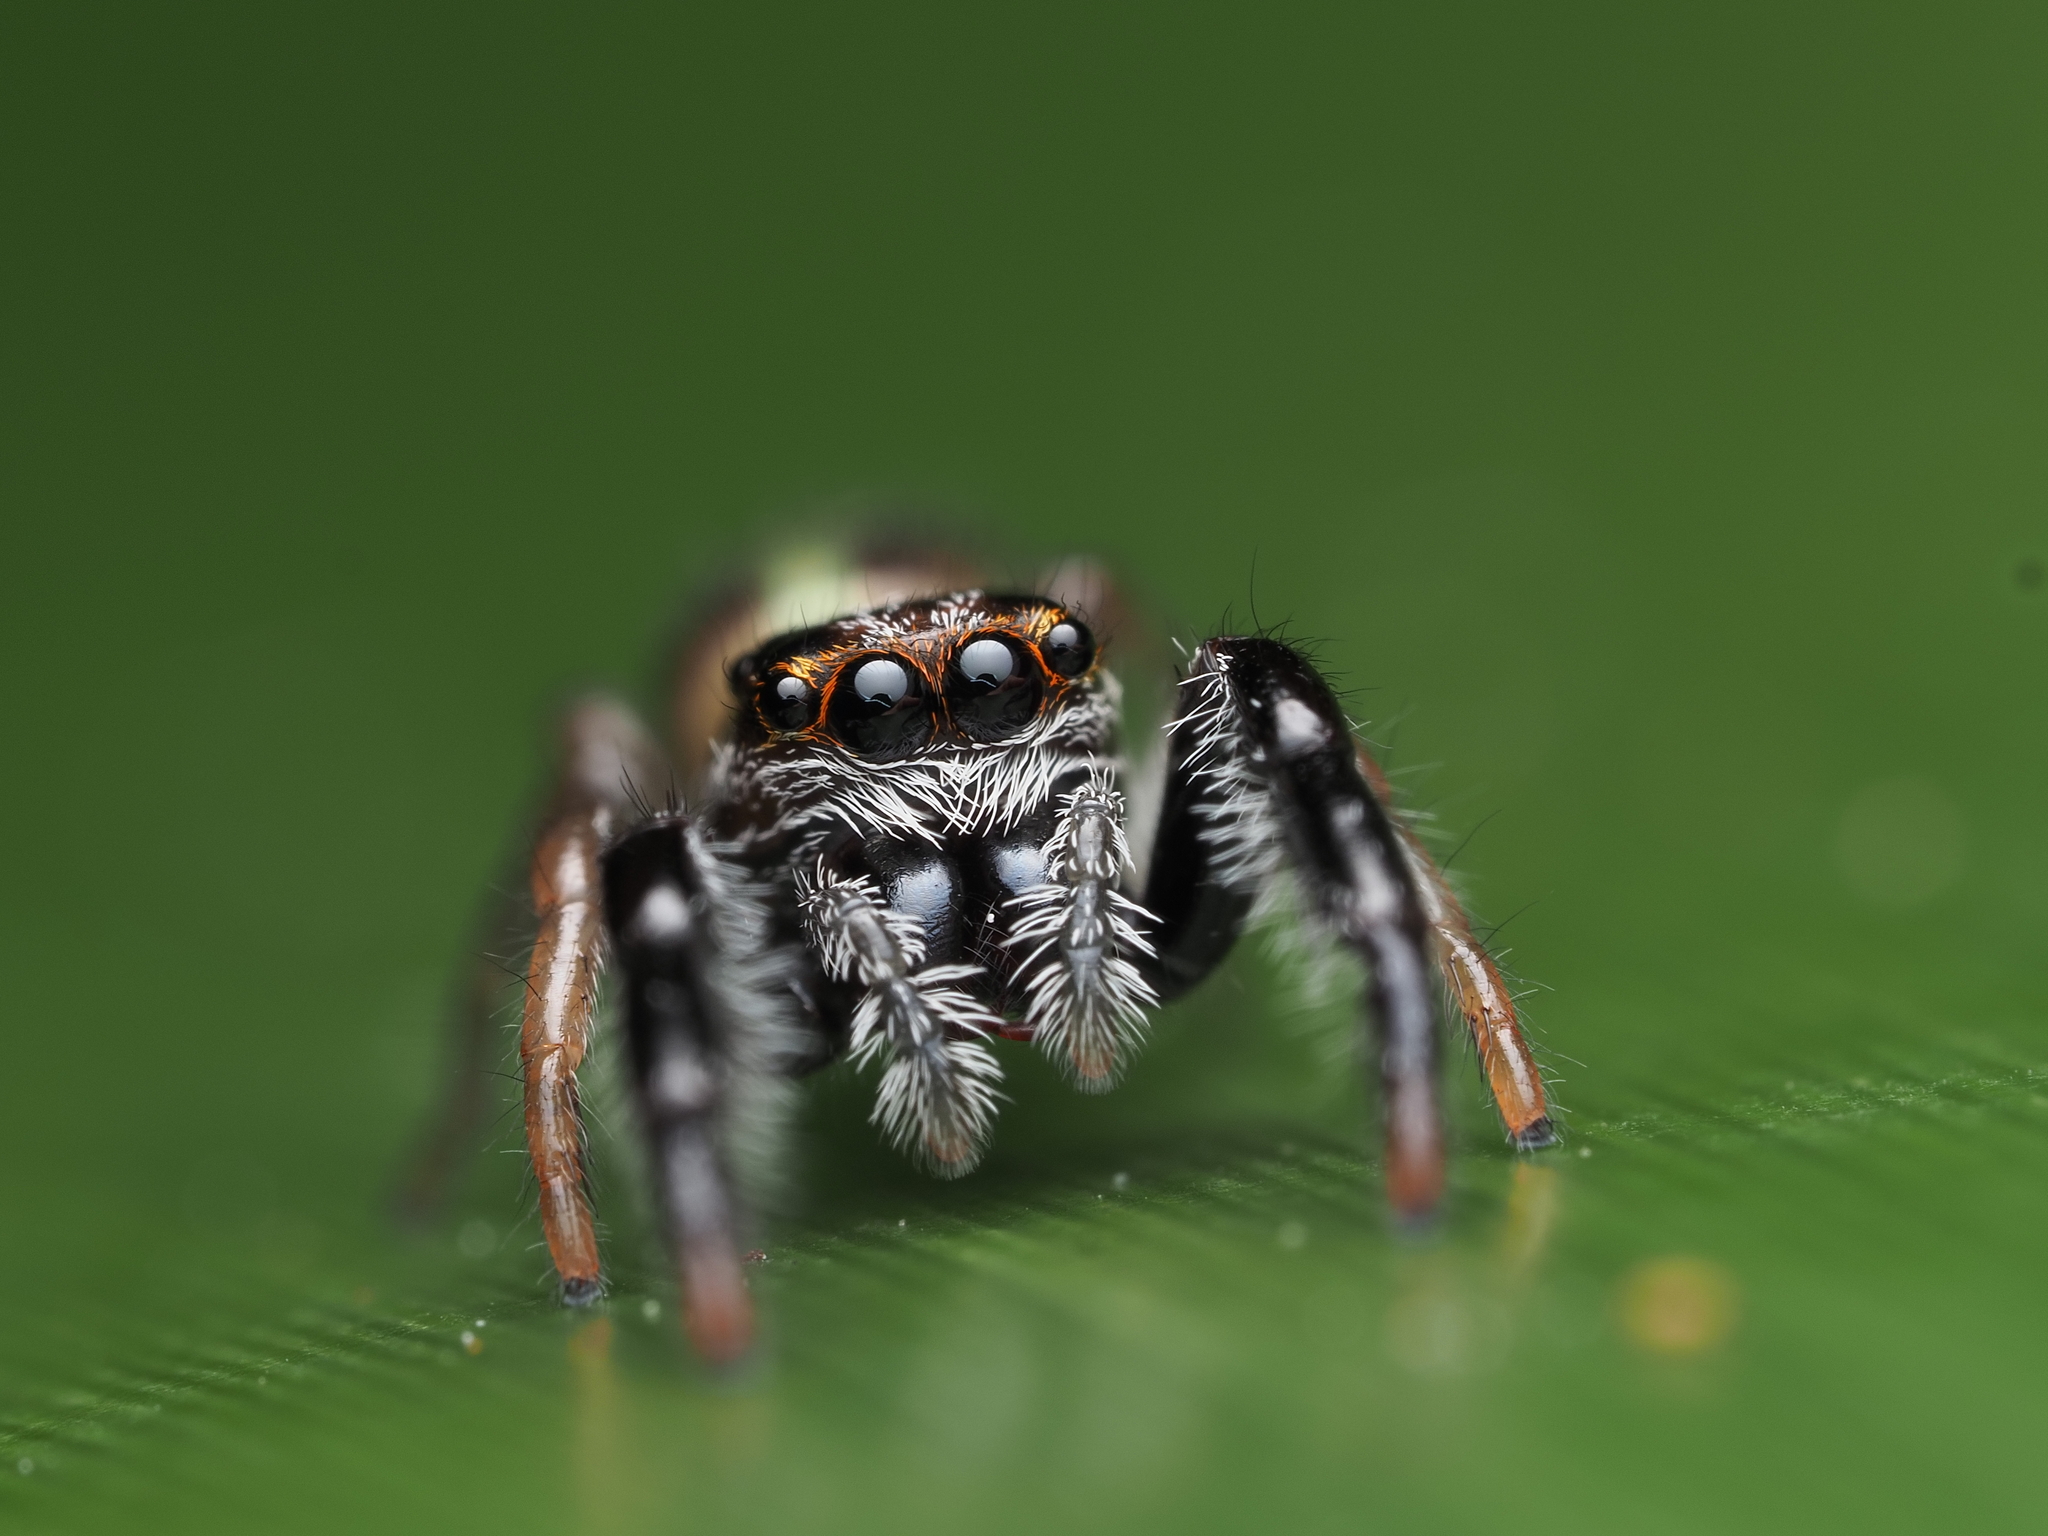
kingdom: Animalia
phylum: Arthropoda
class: Arachnida
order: Araneae
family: Salticidae
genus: Trite
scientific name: Trite planiceps
